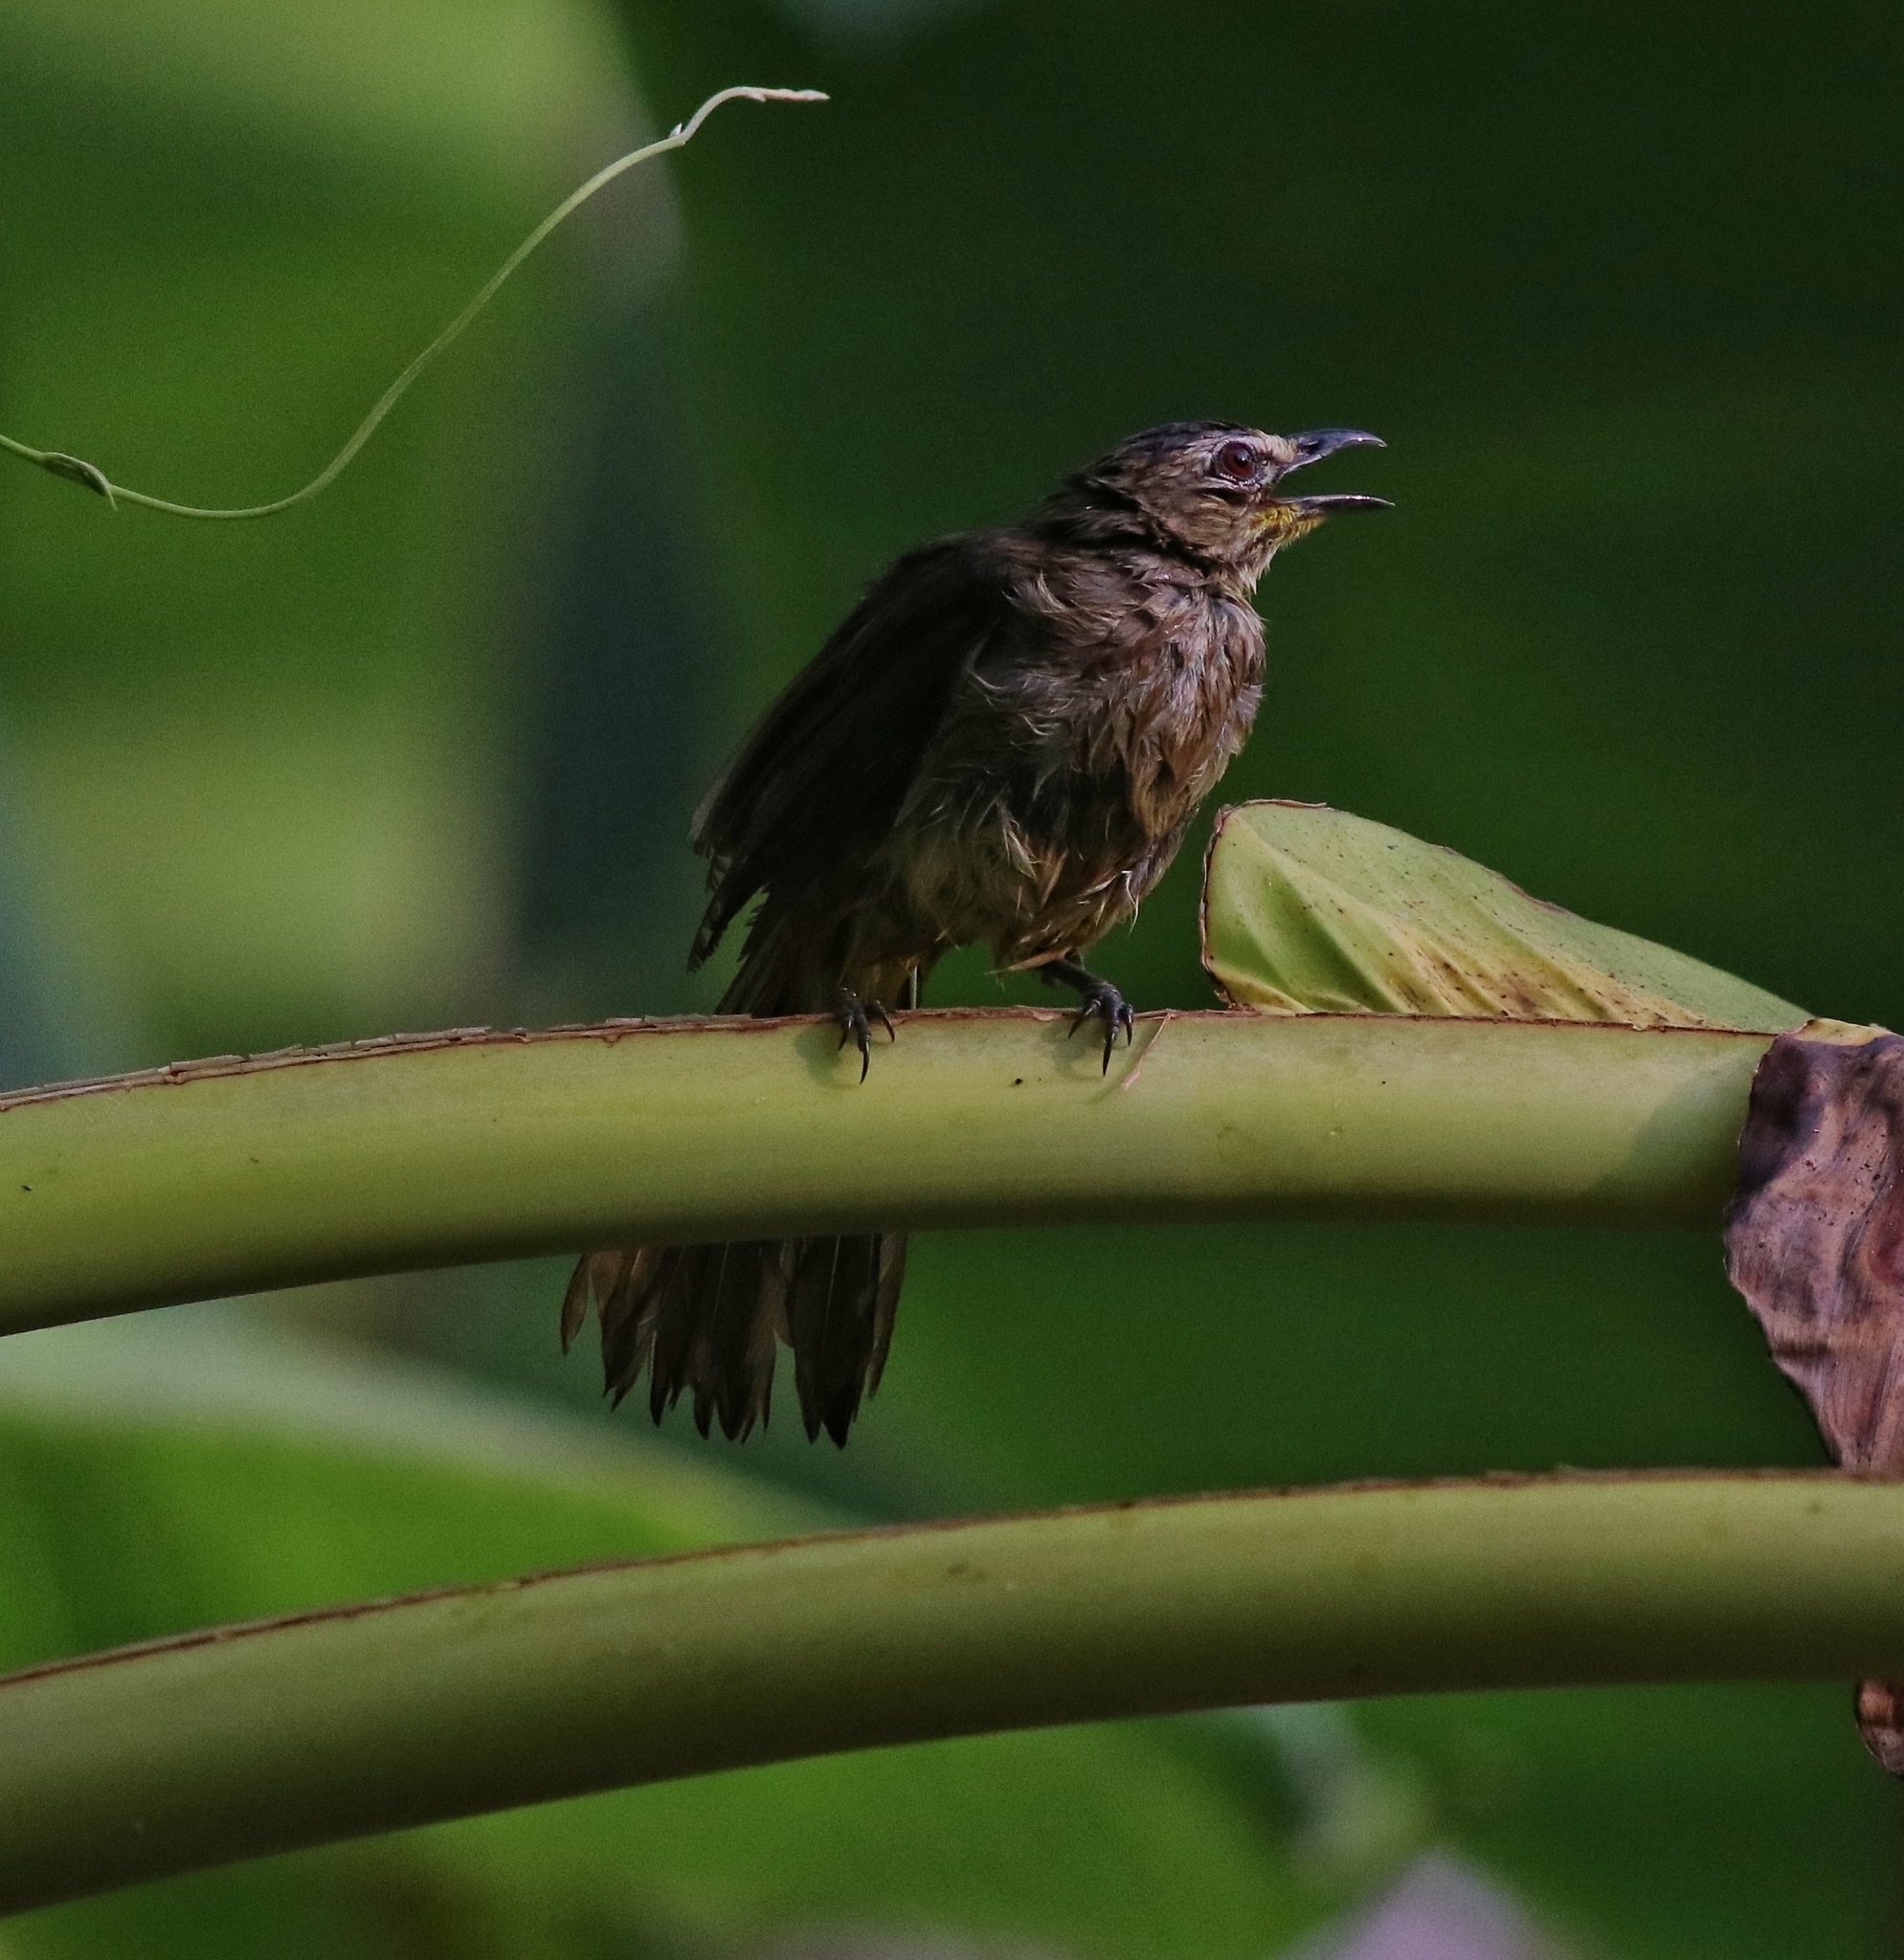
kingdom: Animalia
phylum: Chordata
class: Aves
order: Passeriformes
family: Pycnonotidae
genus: Pycnonotus
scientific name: Pycnonotus luteolus
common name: White-browed bulbul
